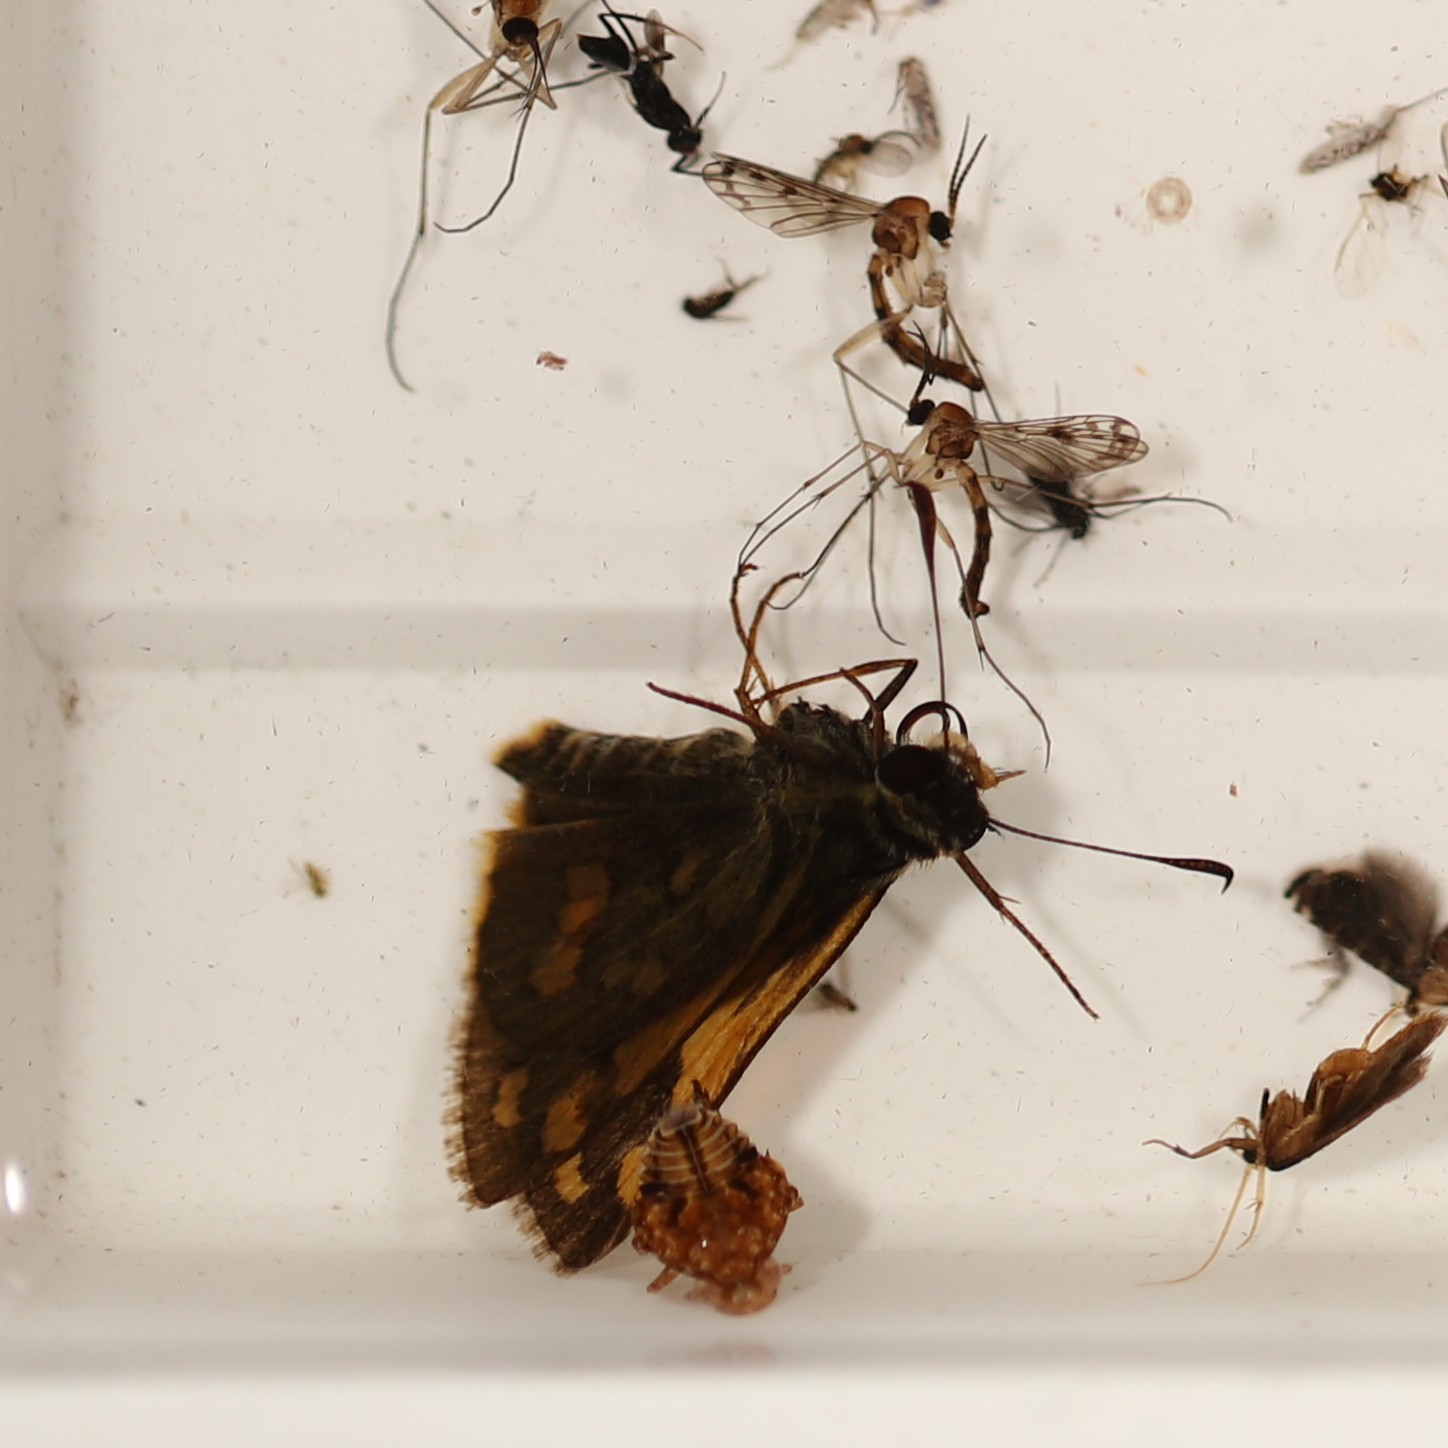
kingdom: Animalia
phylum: Arthropoda
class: Insecta
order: Lepidoptera
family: Hesperiidae
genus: Ocybadistes
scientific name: Ocybadistes walkeri
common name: Yellow-banded dart
